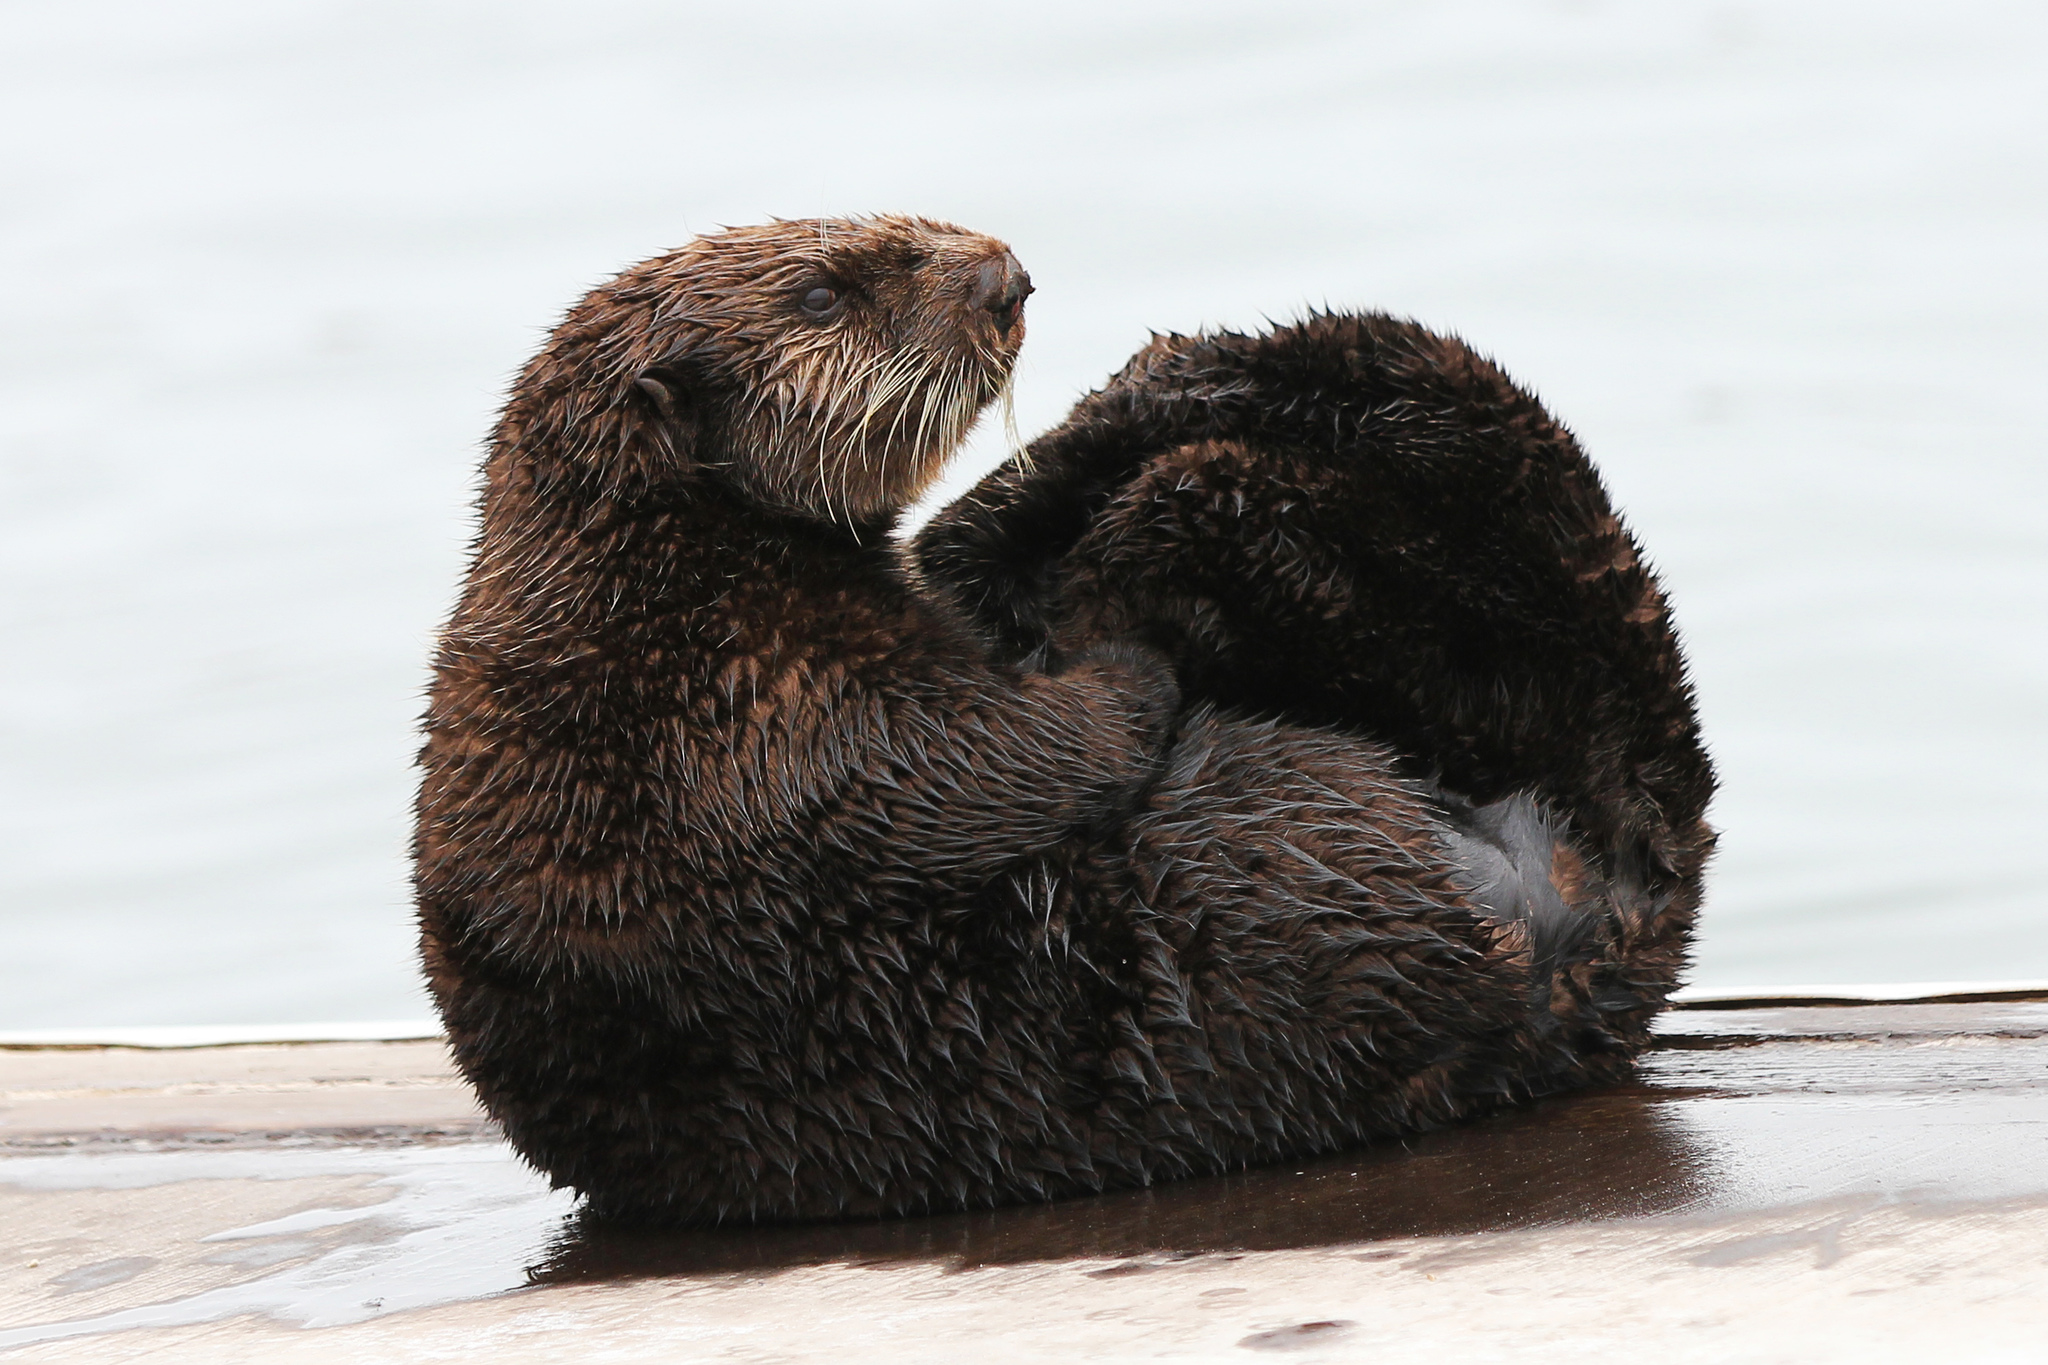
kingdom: Animalia
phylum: Chordata
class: Mammalia
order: Carnivora
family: Mustelidae
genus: Enhydra
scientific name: Enhydra lutris
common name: Sea otter
